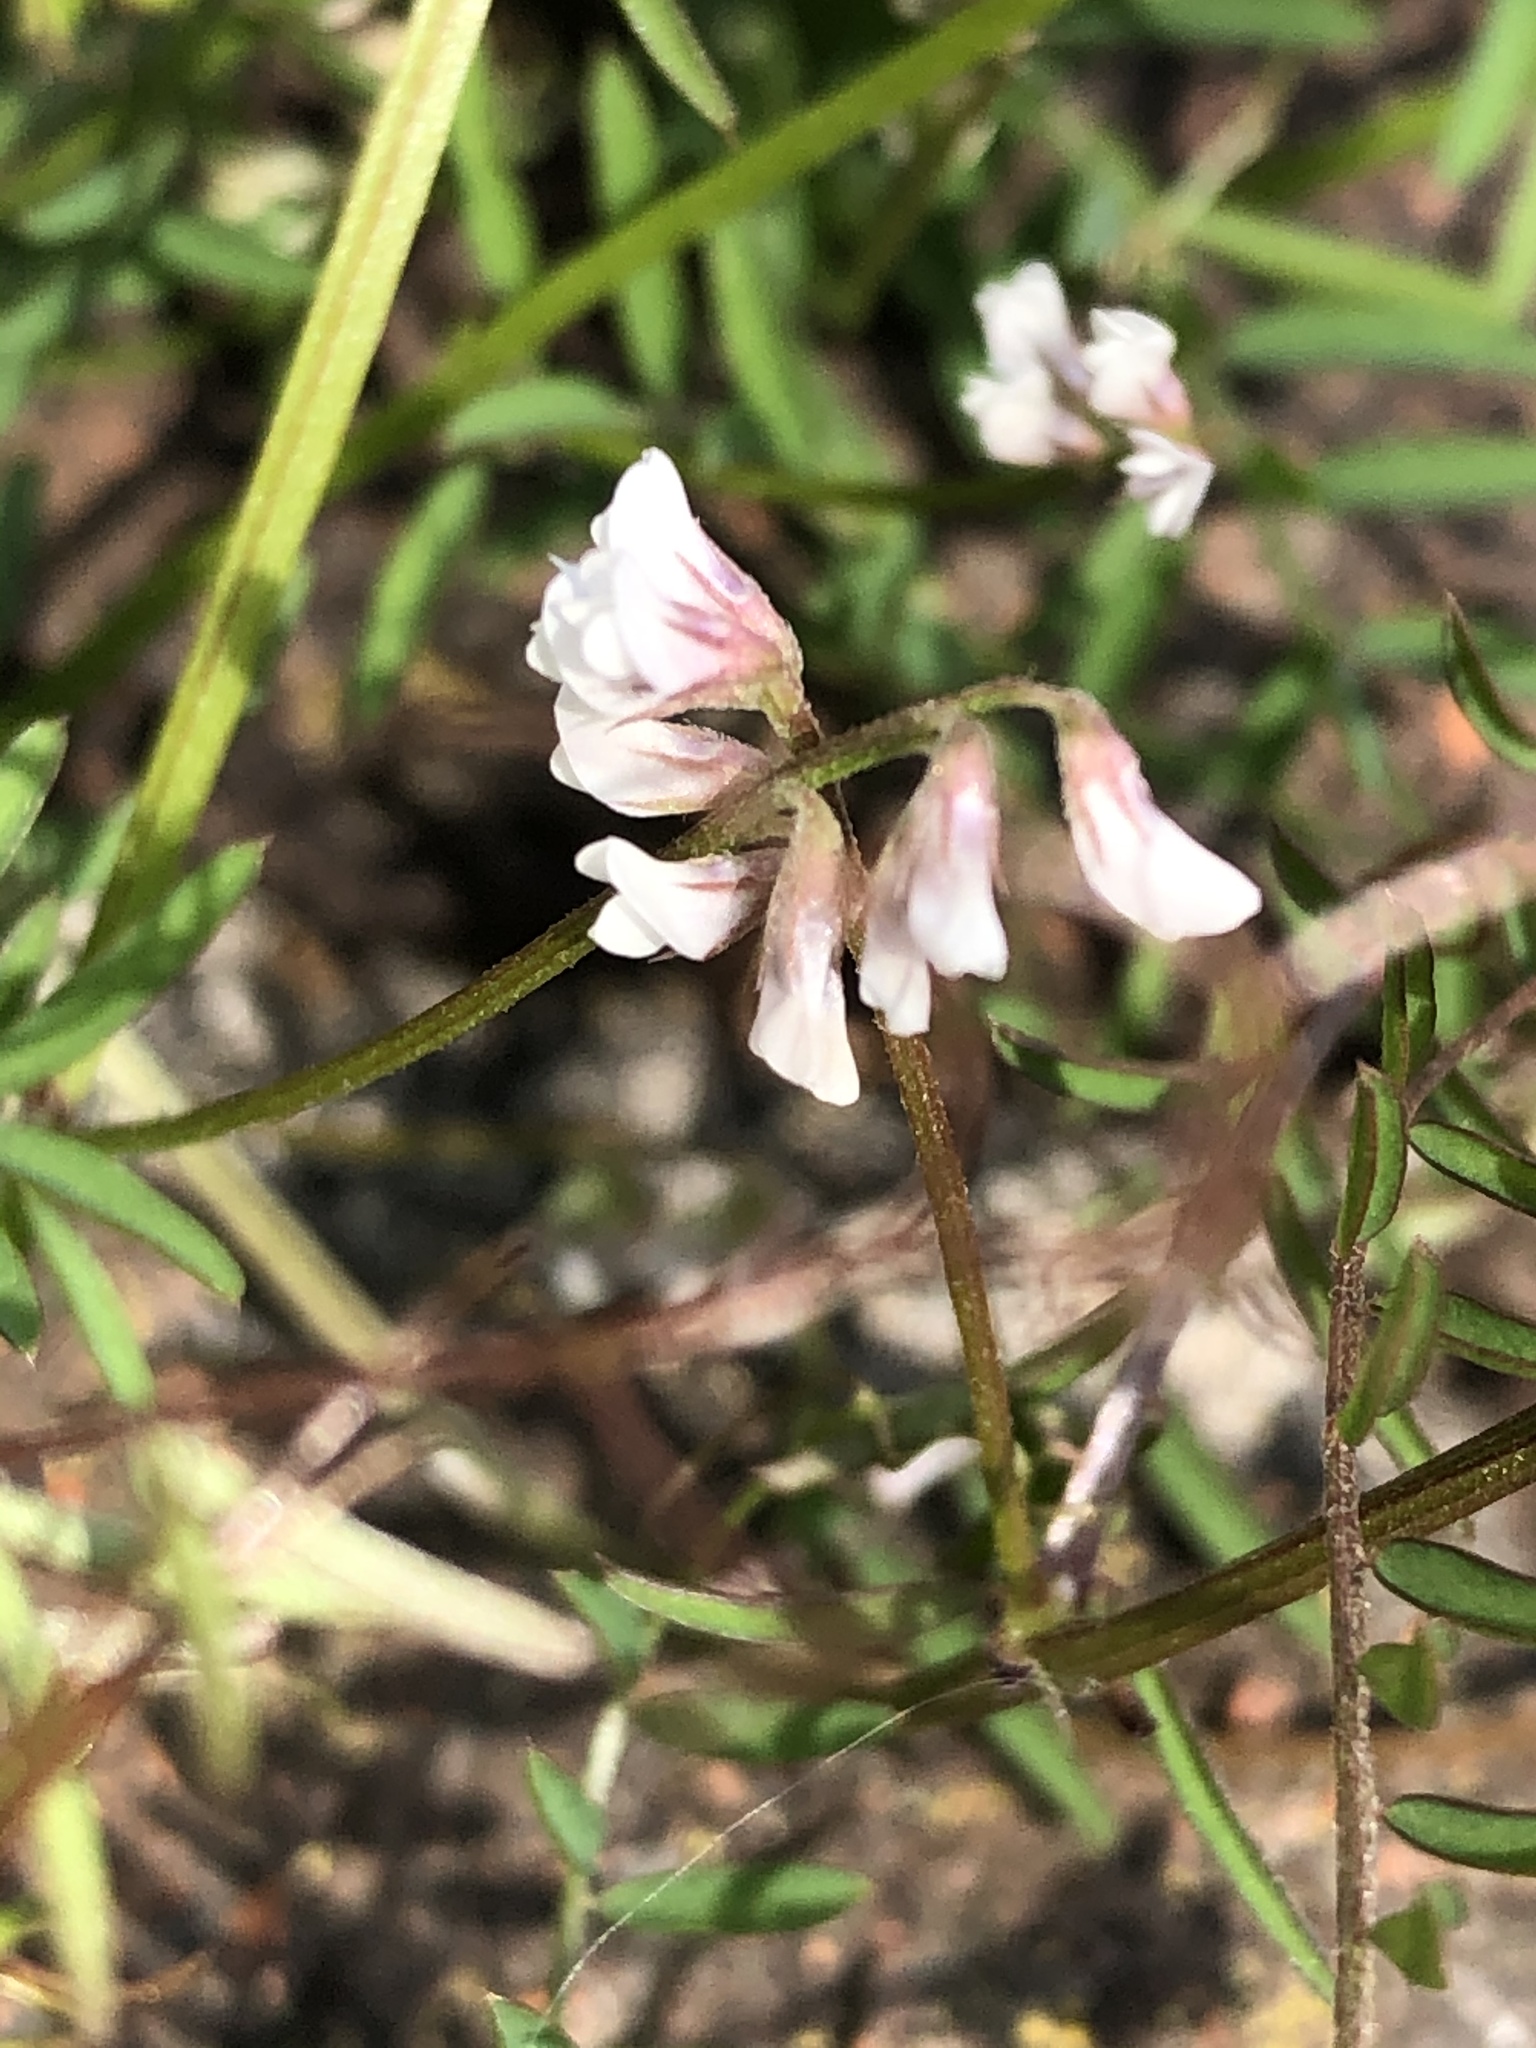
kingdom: Plantae
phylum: Tracheophyta
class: Magnoliopsida
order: Fabales
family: Fabaceae
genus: Vicia
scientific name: Vicia hirsuta
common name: Tiny vetch
